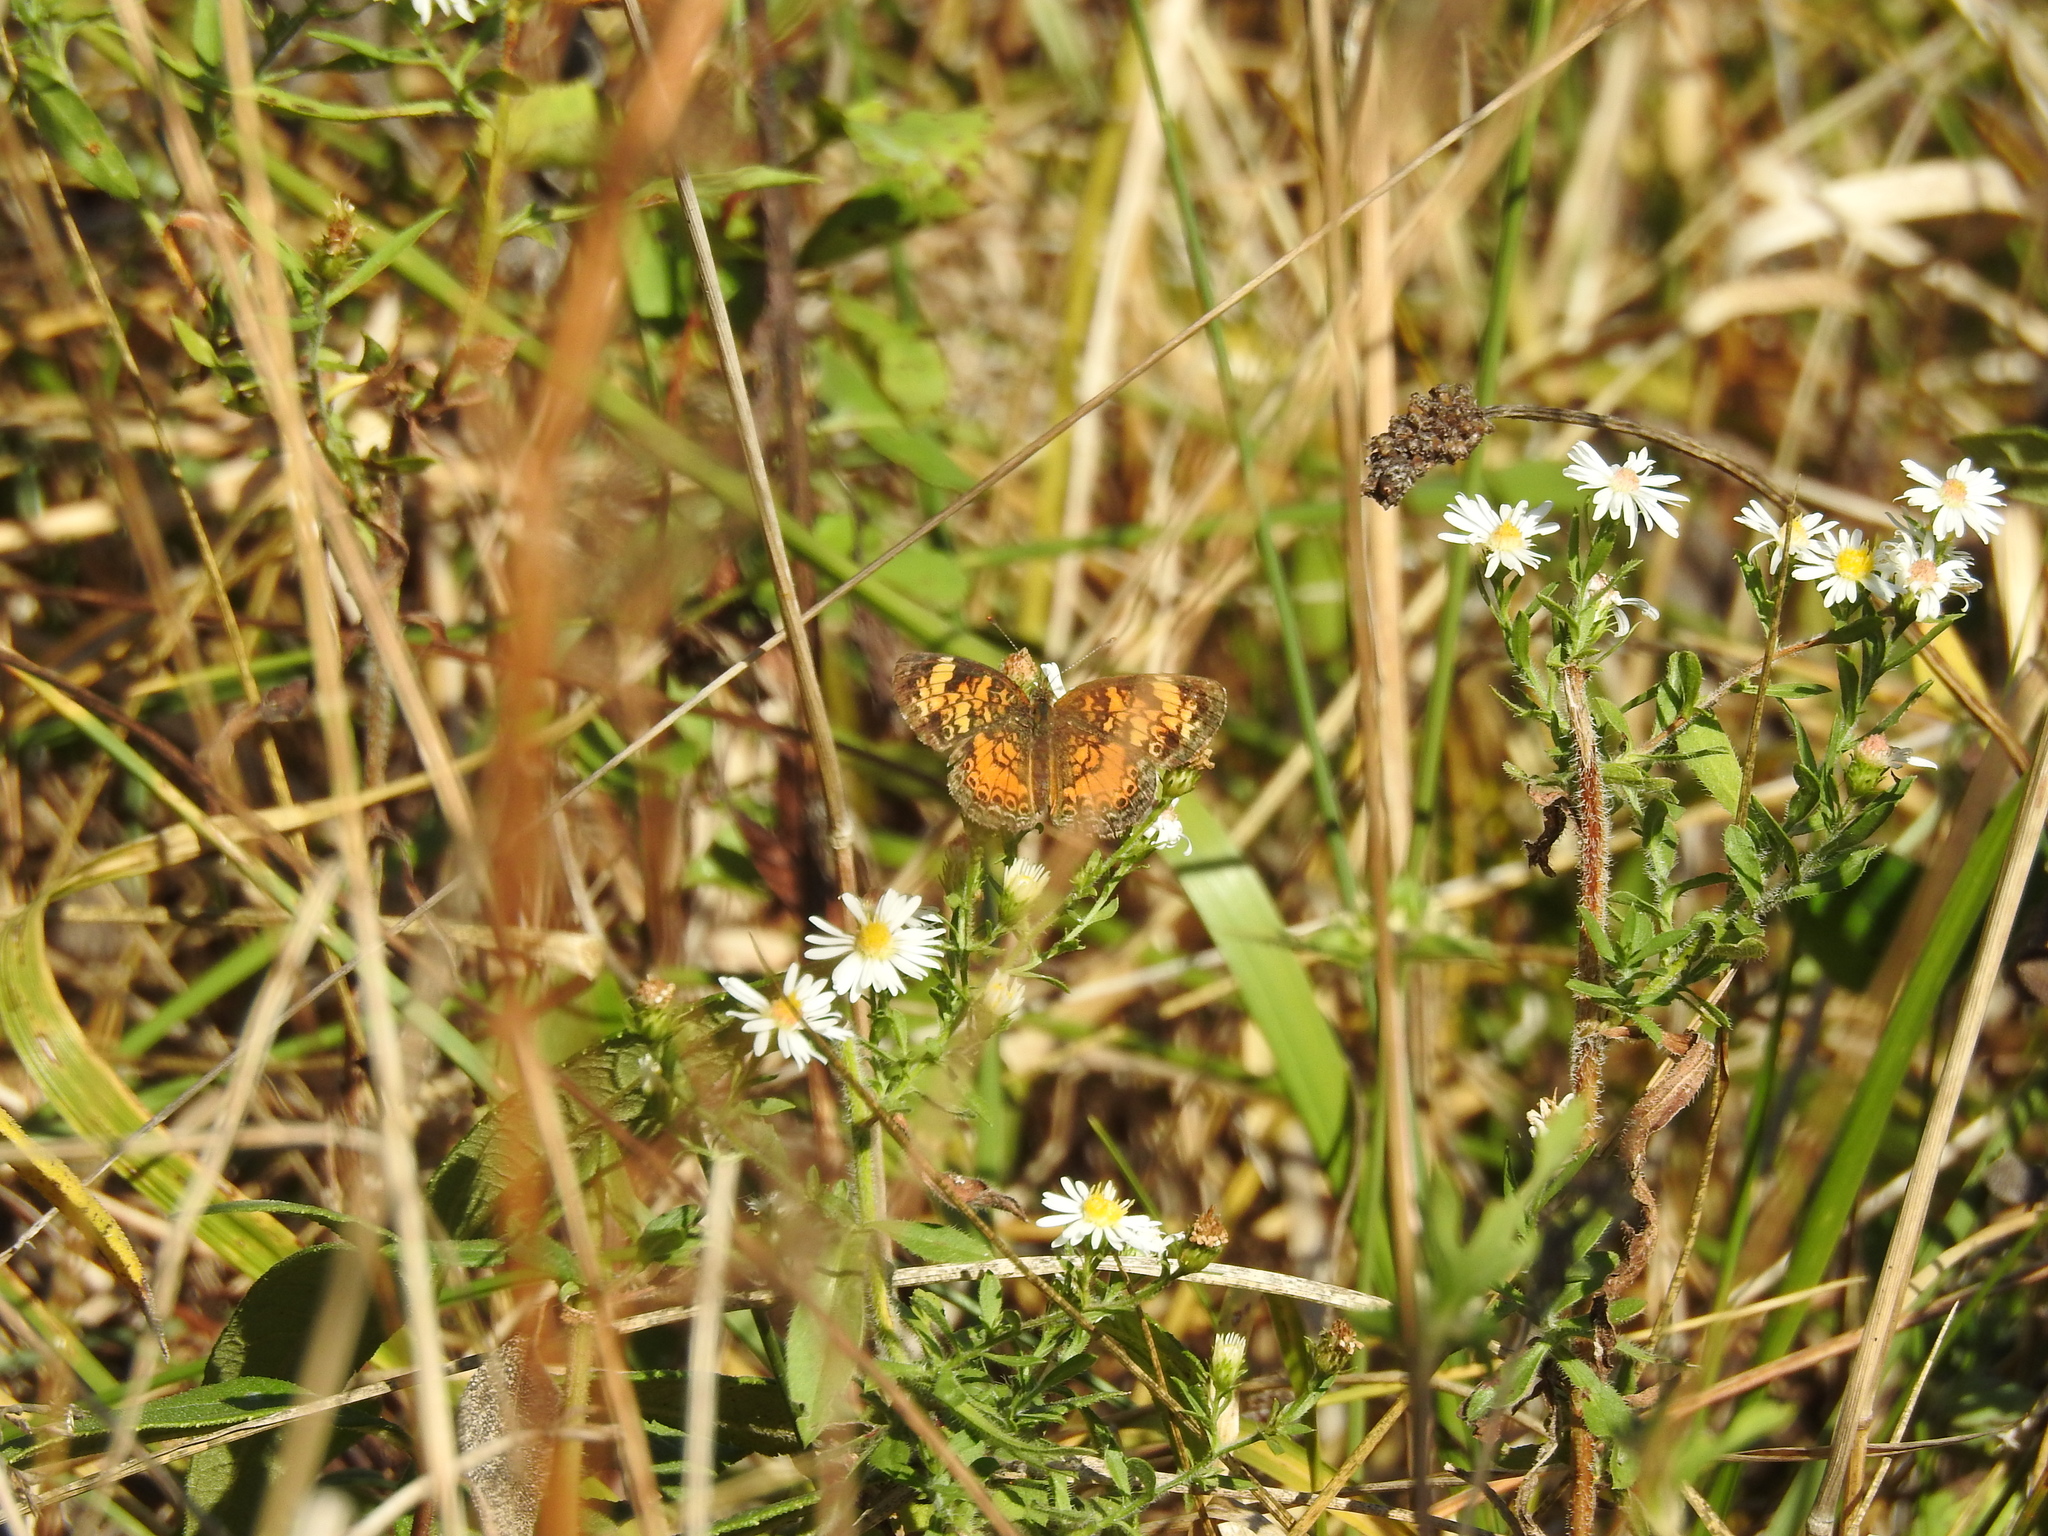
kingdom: Animalia
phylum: Arthropoda
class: Insecta
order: Lepidoptera
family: Nymphalidae
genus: Phyciodes
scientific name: Phyciodes tharos
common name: Pearl crescent
